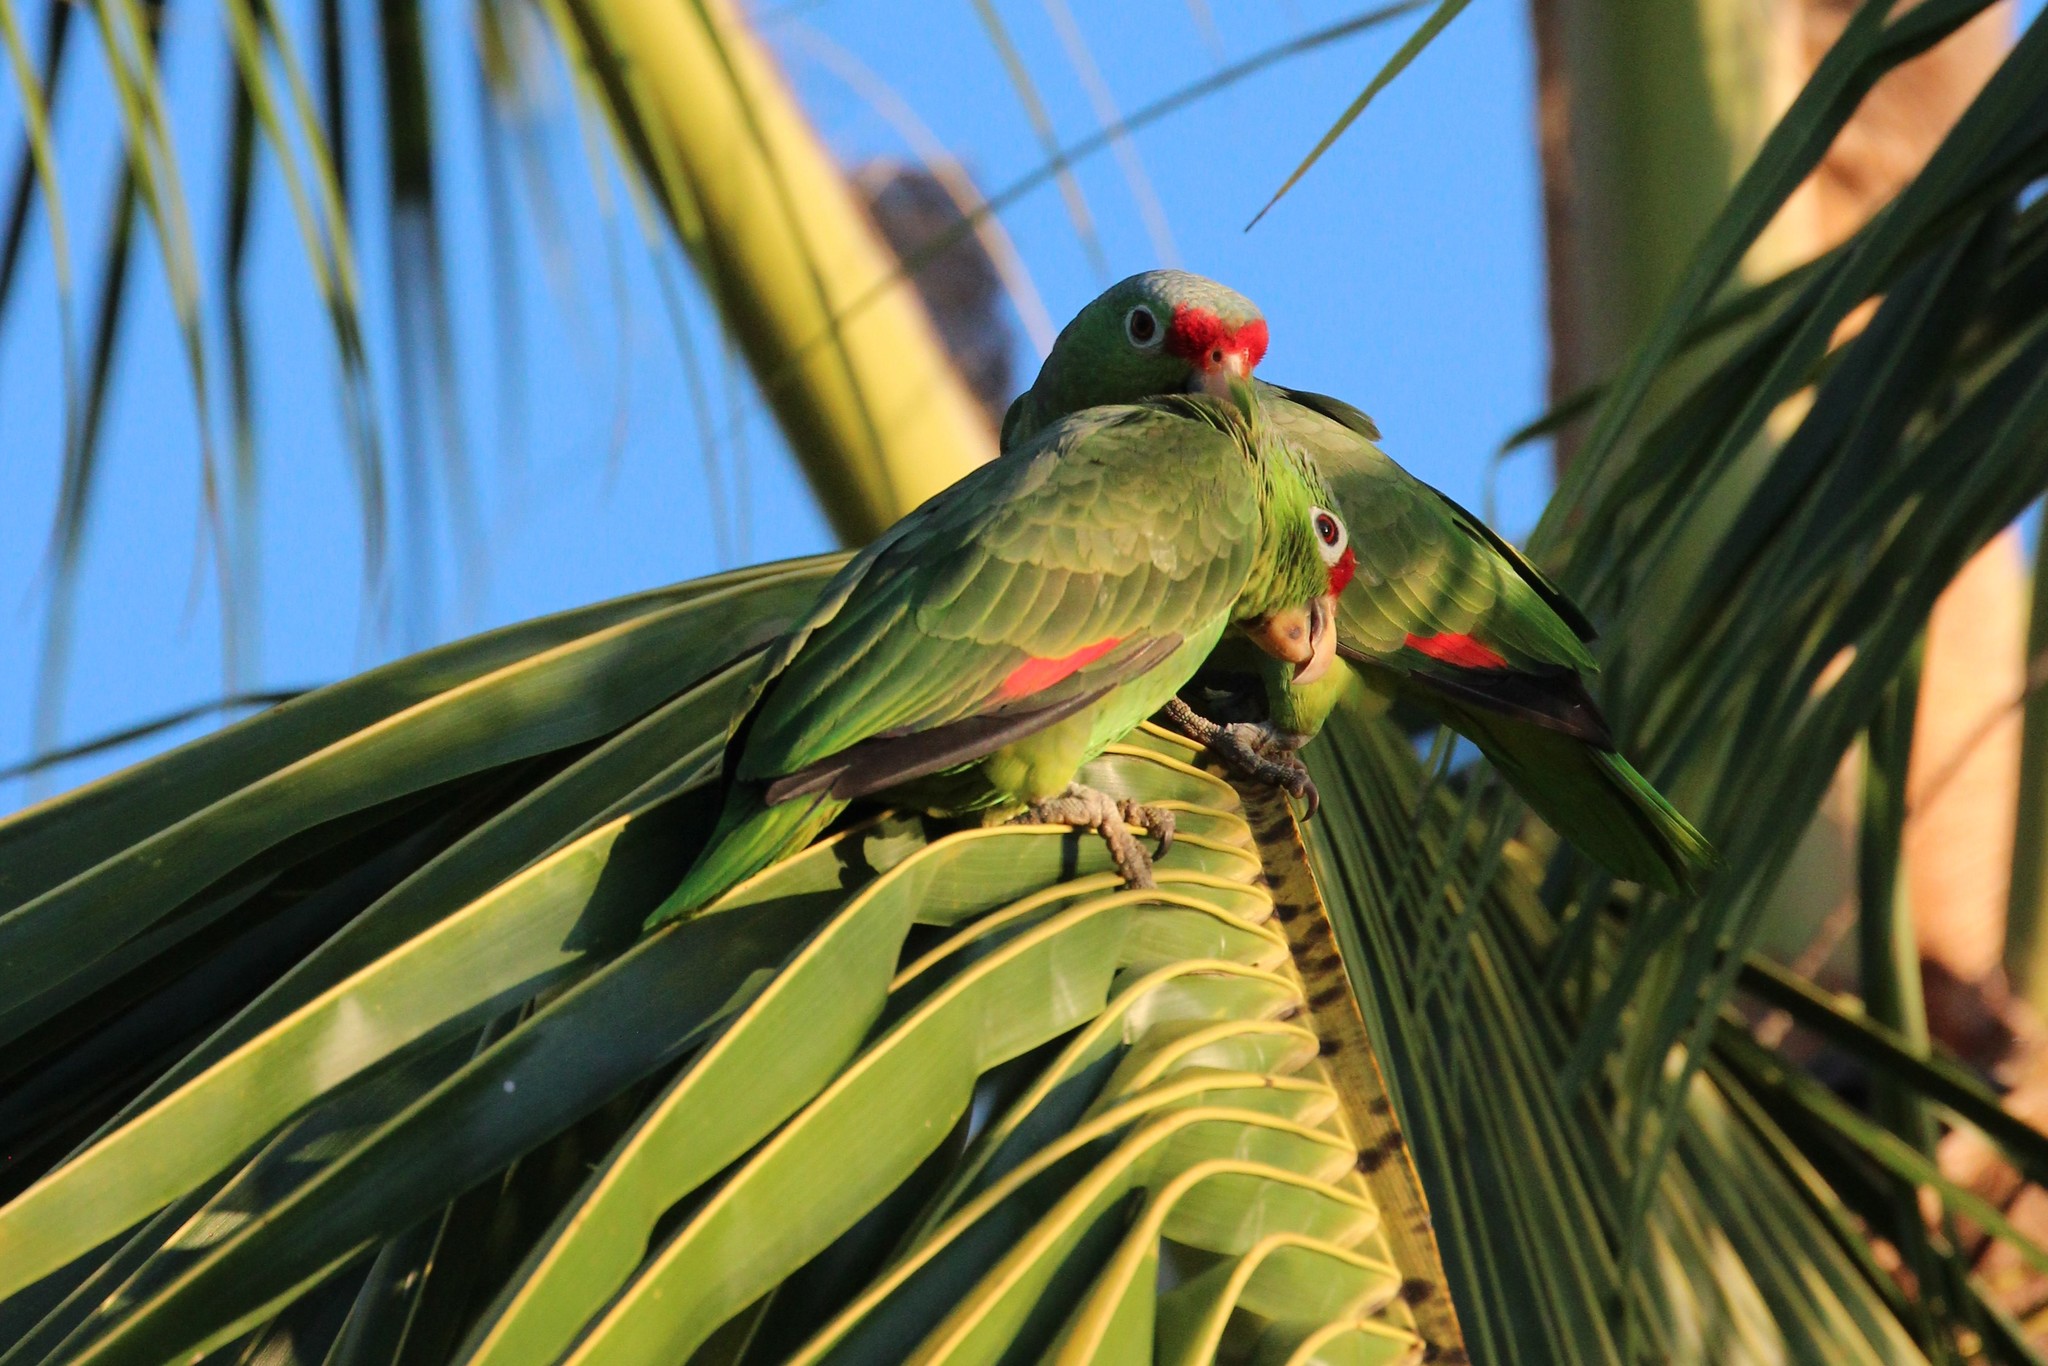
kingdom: Animalia
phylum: Chordata
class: Aves
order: Psittaciformes
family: Psittacidae
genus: Amazona
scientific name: Amazona autumnalis
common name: Red-lored amazon
